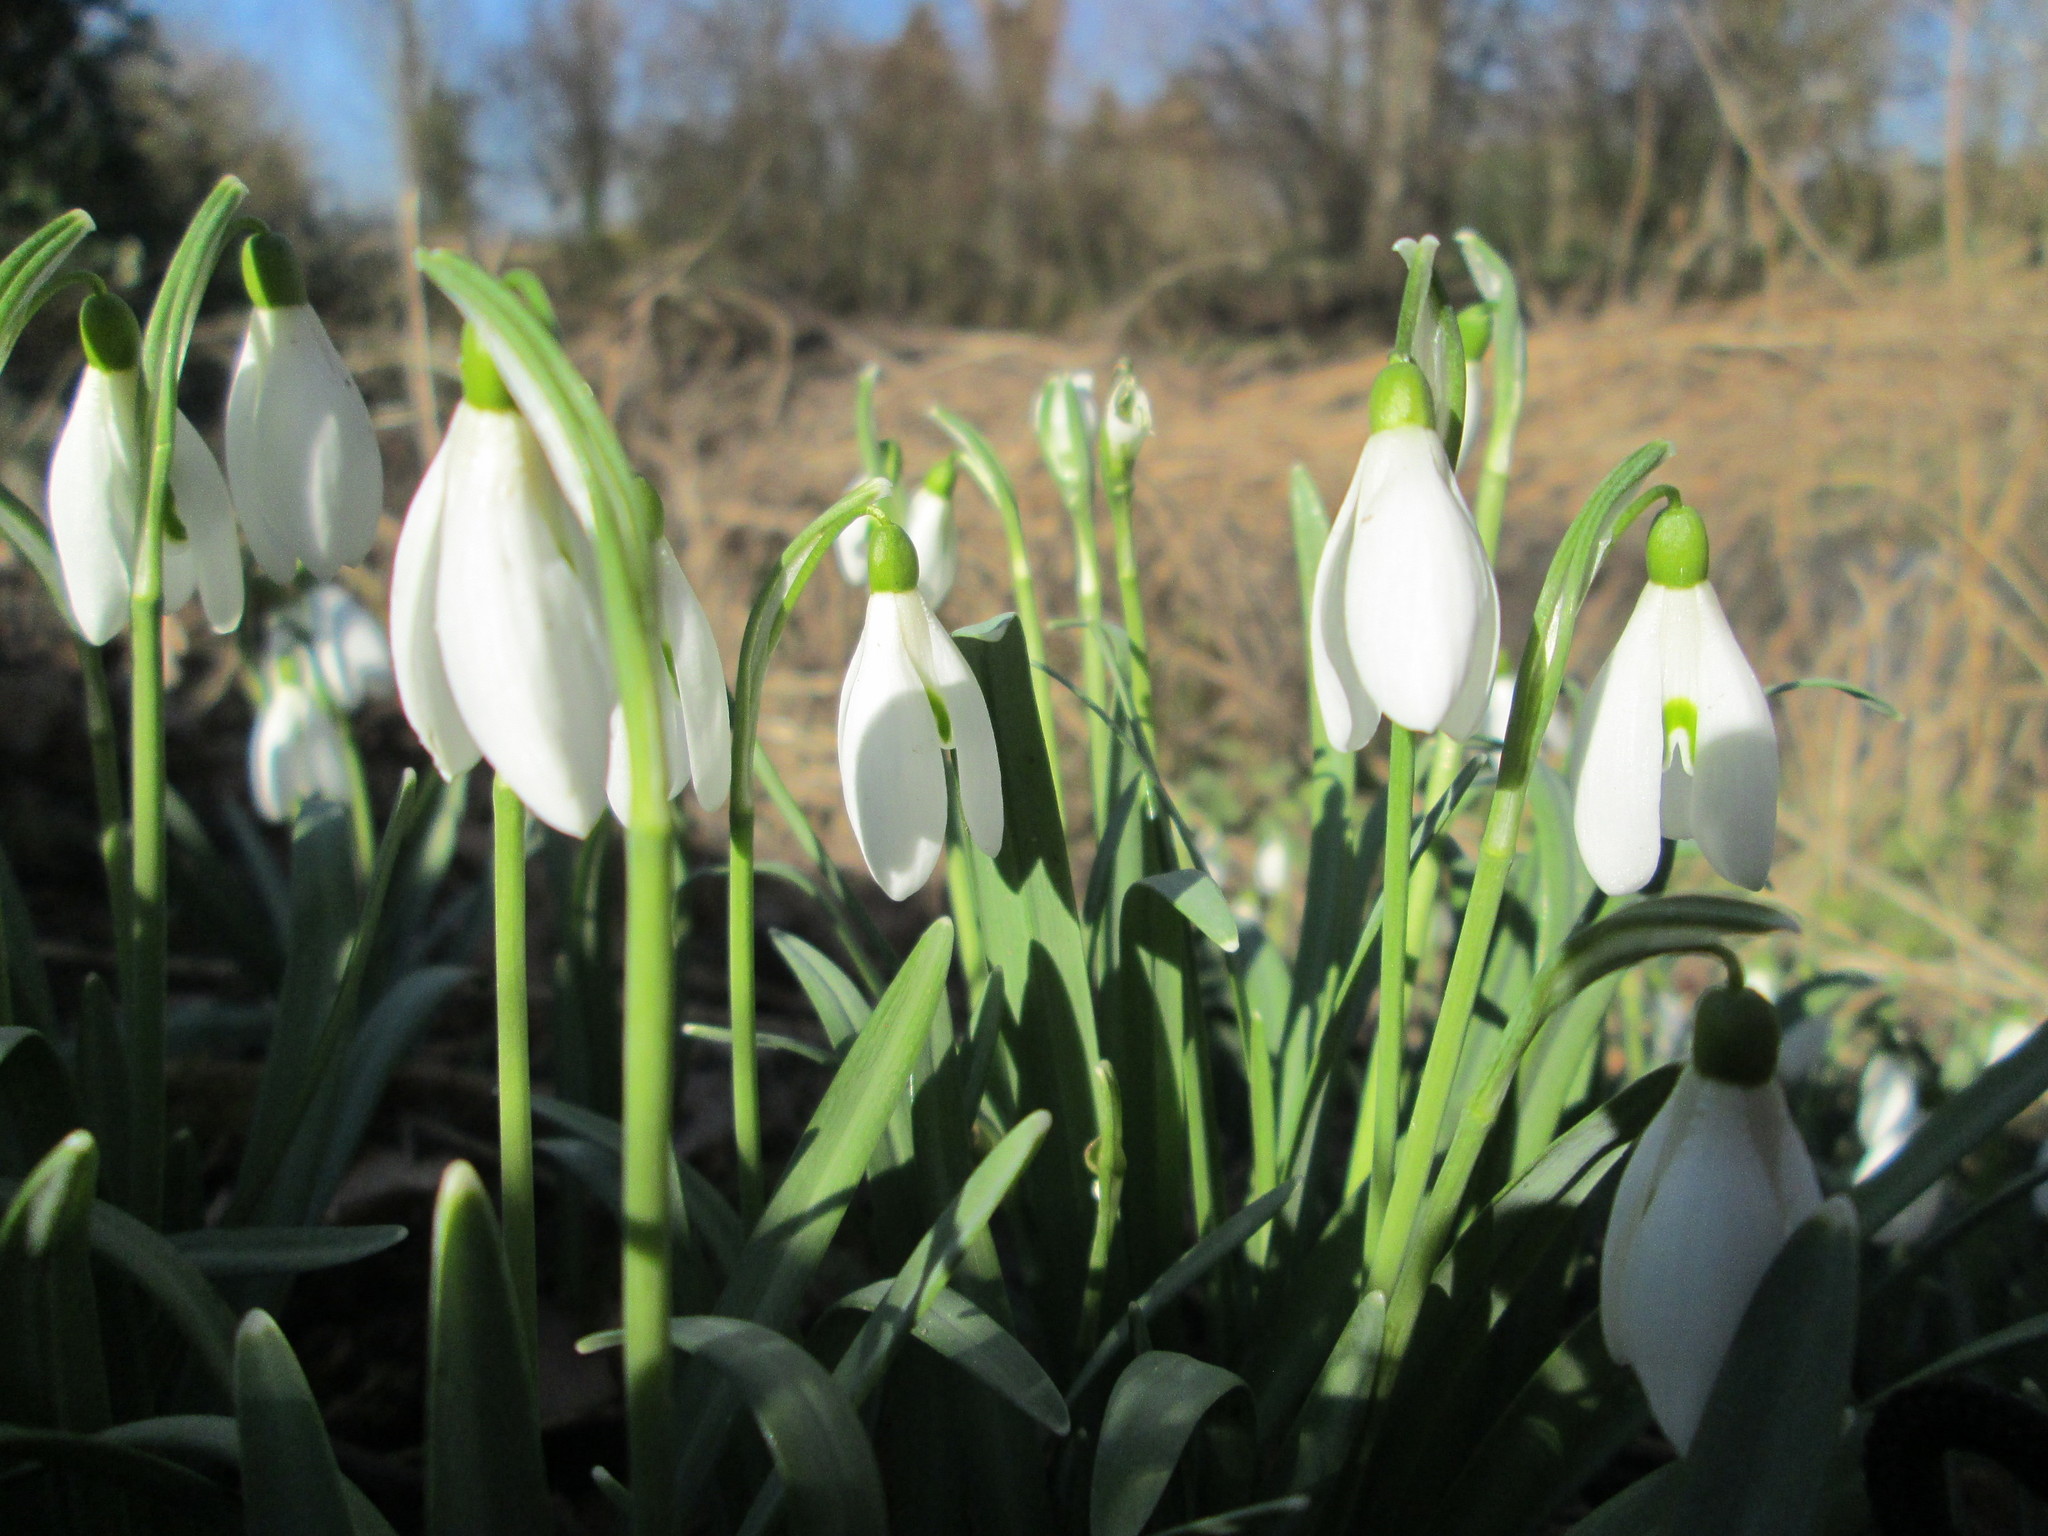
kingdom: Plantae
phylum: Tracheophyta
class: Liliopsida
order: Asparagales
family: Amaryllidaceae
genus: Galanthus
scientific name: Galanthus nivalis
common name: Snowdrop
